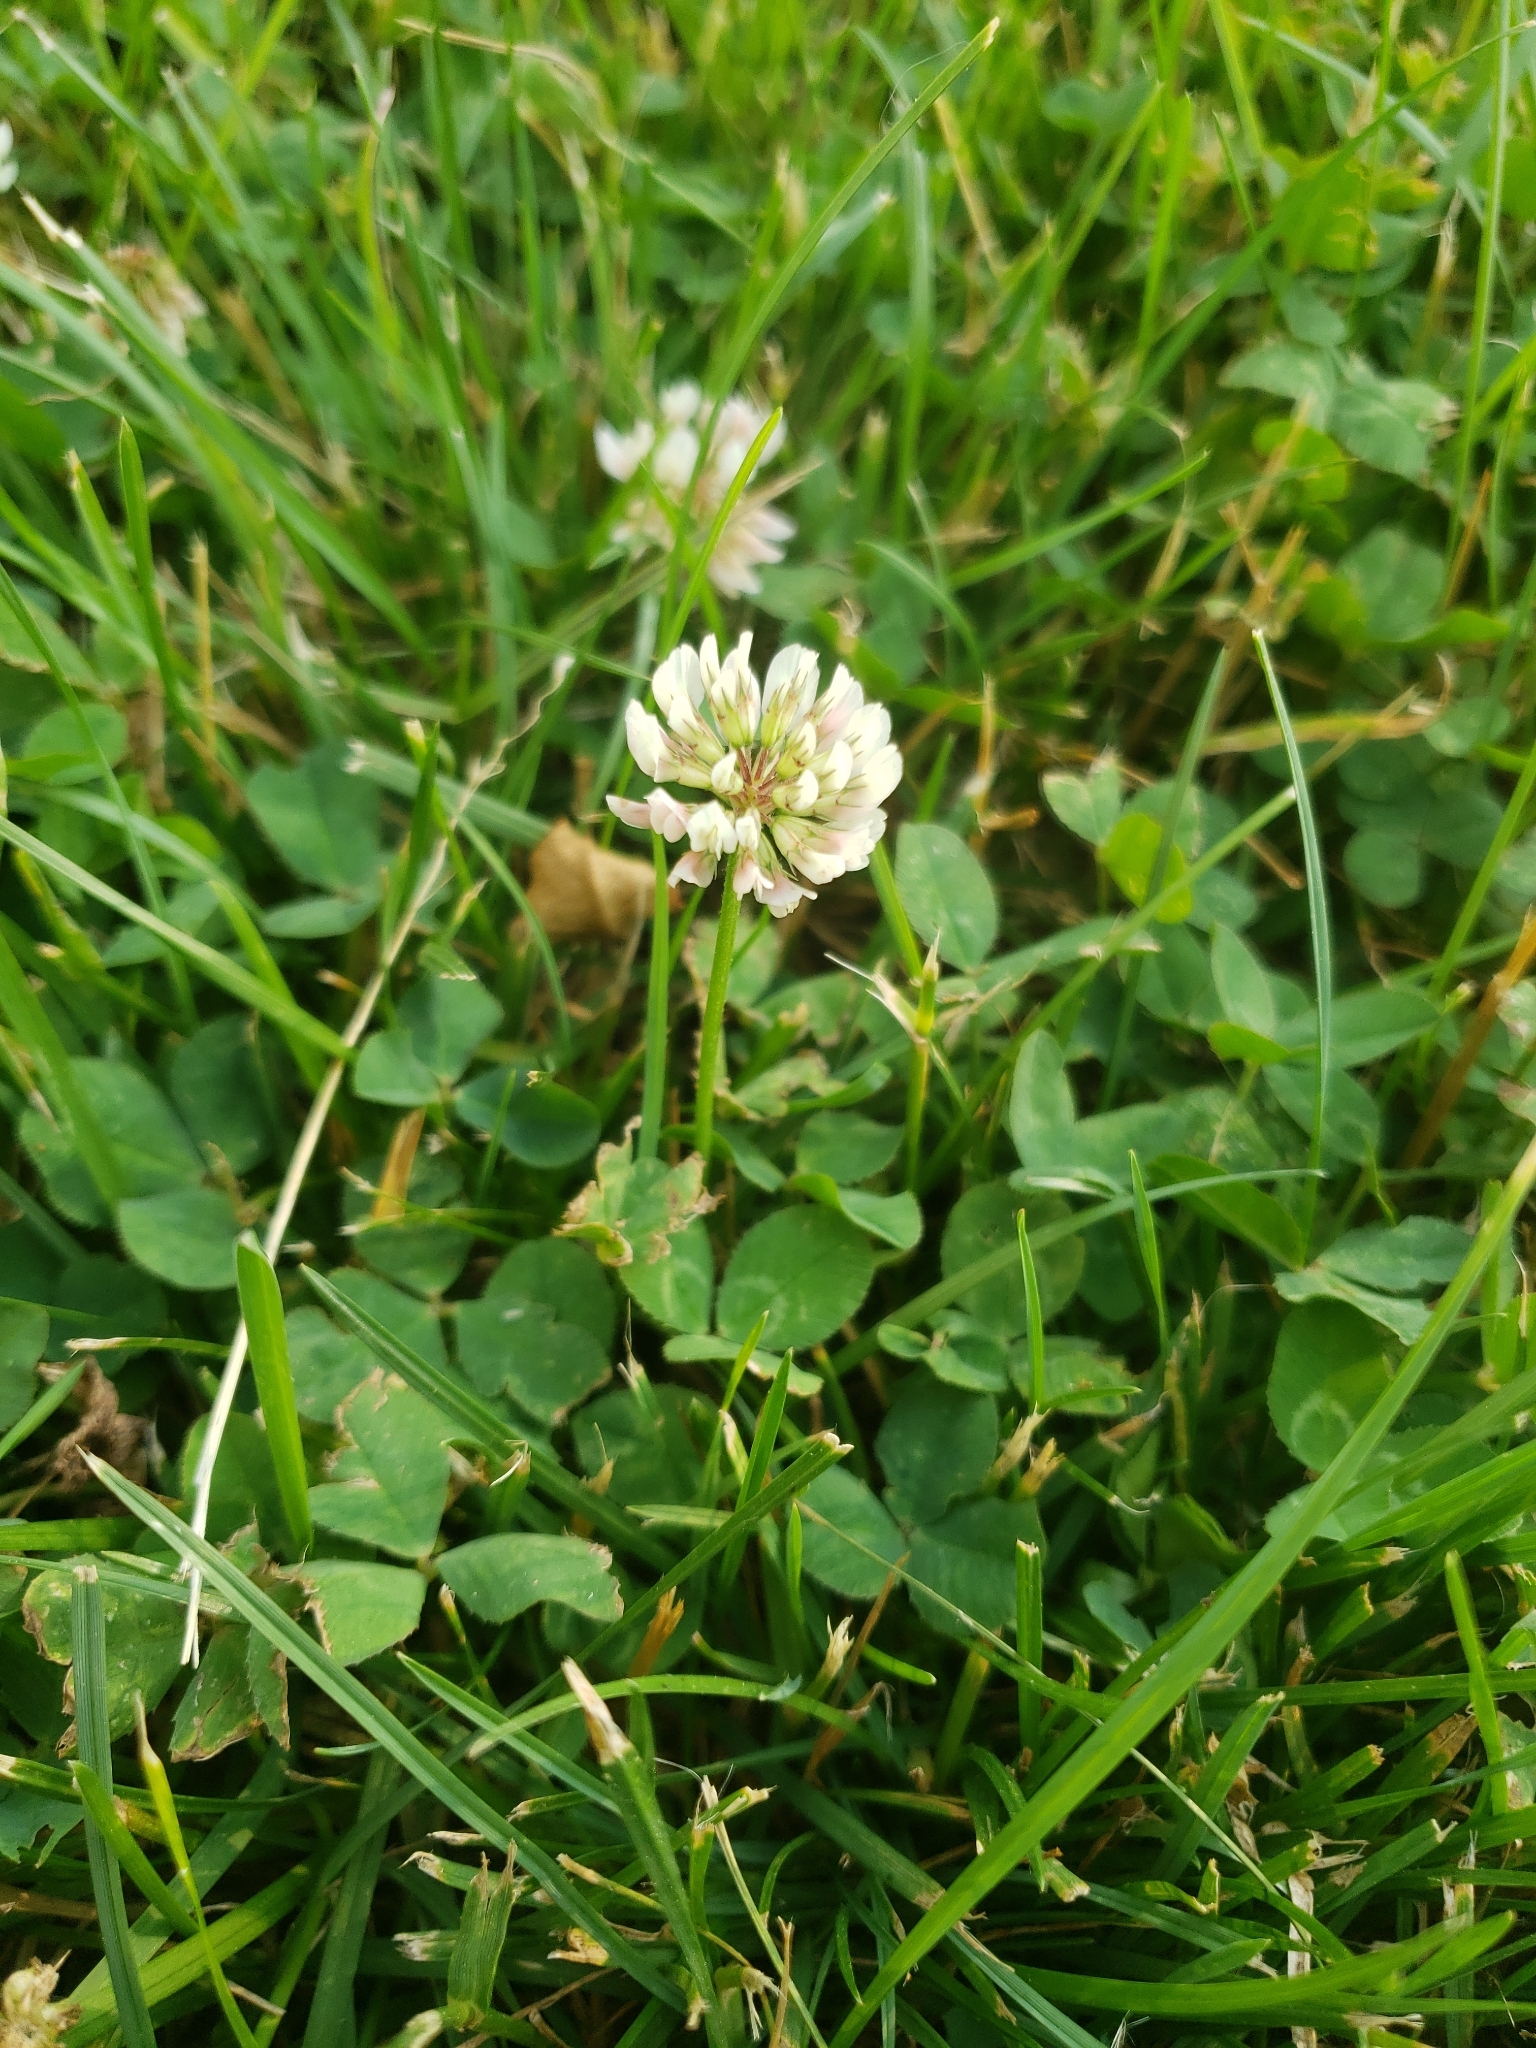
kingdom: Plantae
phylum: Tracheophyta
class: Magnoliopsida
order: Fabales
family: Fabaceae
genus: Trifolium
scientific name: Trifolium repens
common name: White clover
